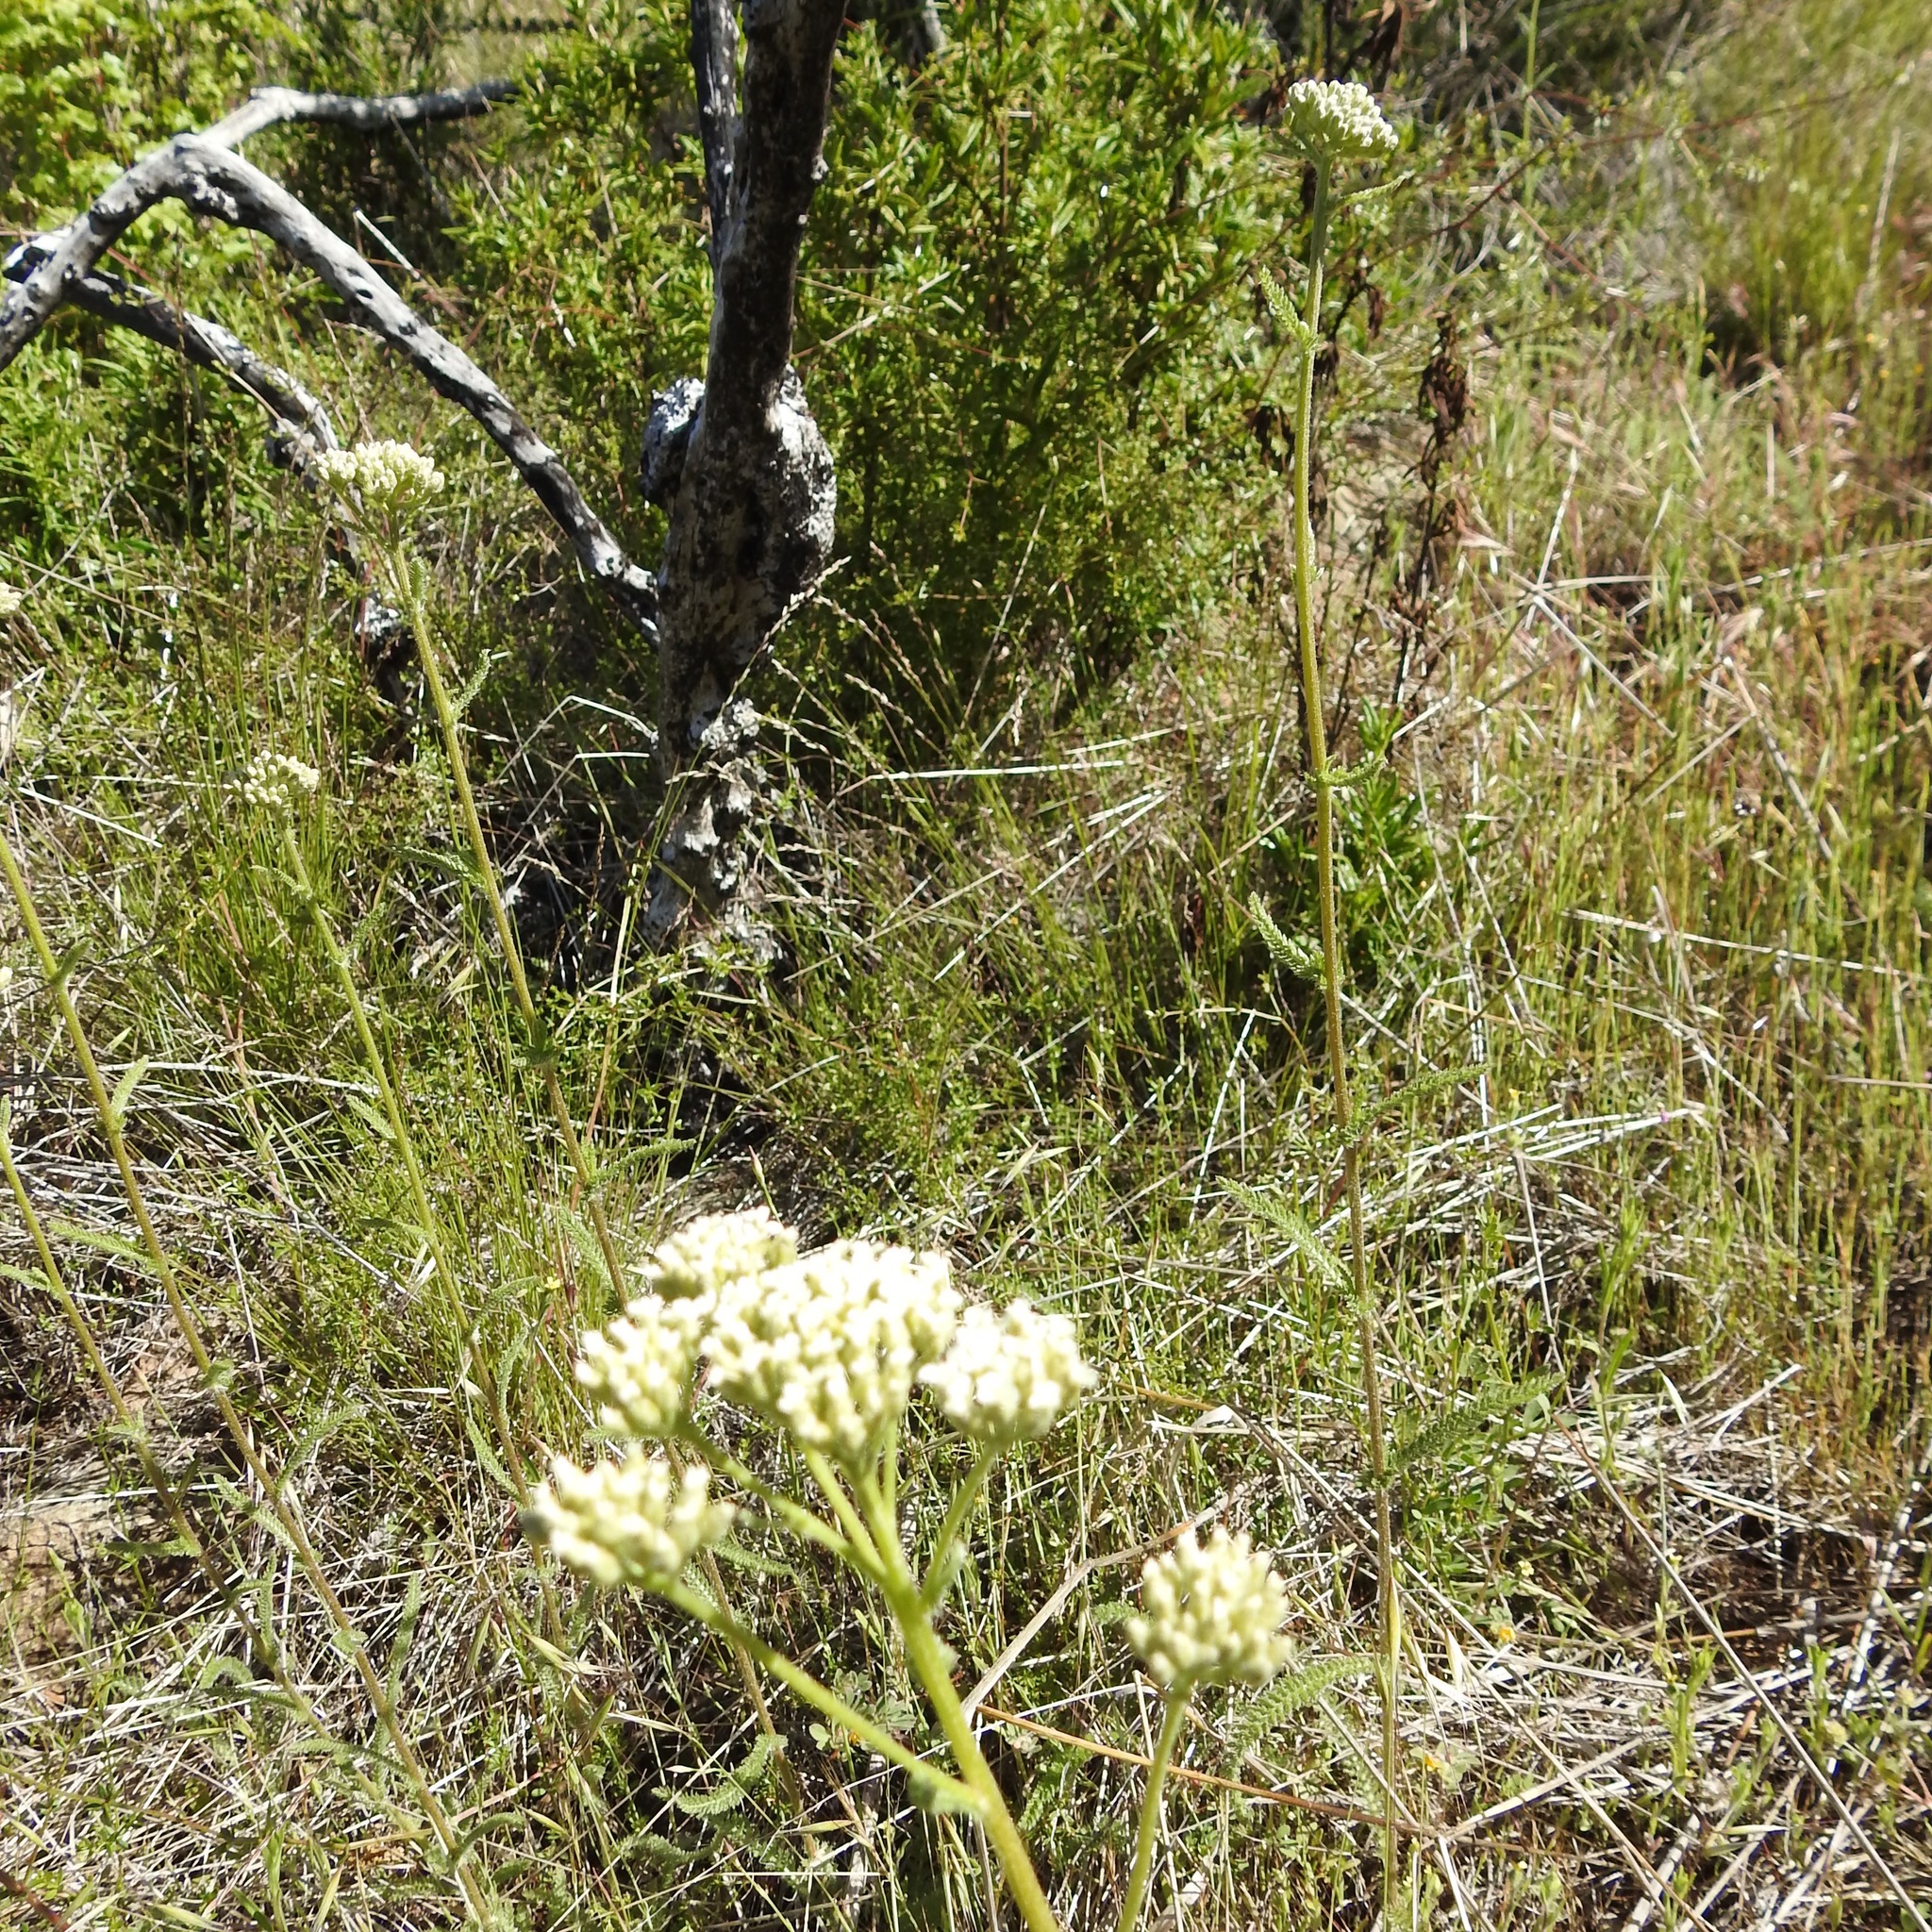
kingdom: Plantae
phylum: Tracheophyta
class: Magnoliopsida
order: Asterales
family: Asteraceae
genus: Achillea
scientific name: Achillea millefolium
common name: Yarrow
